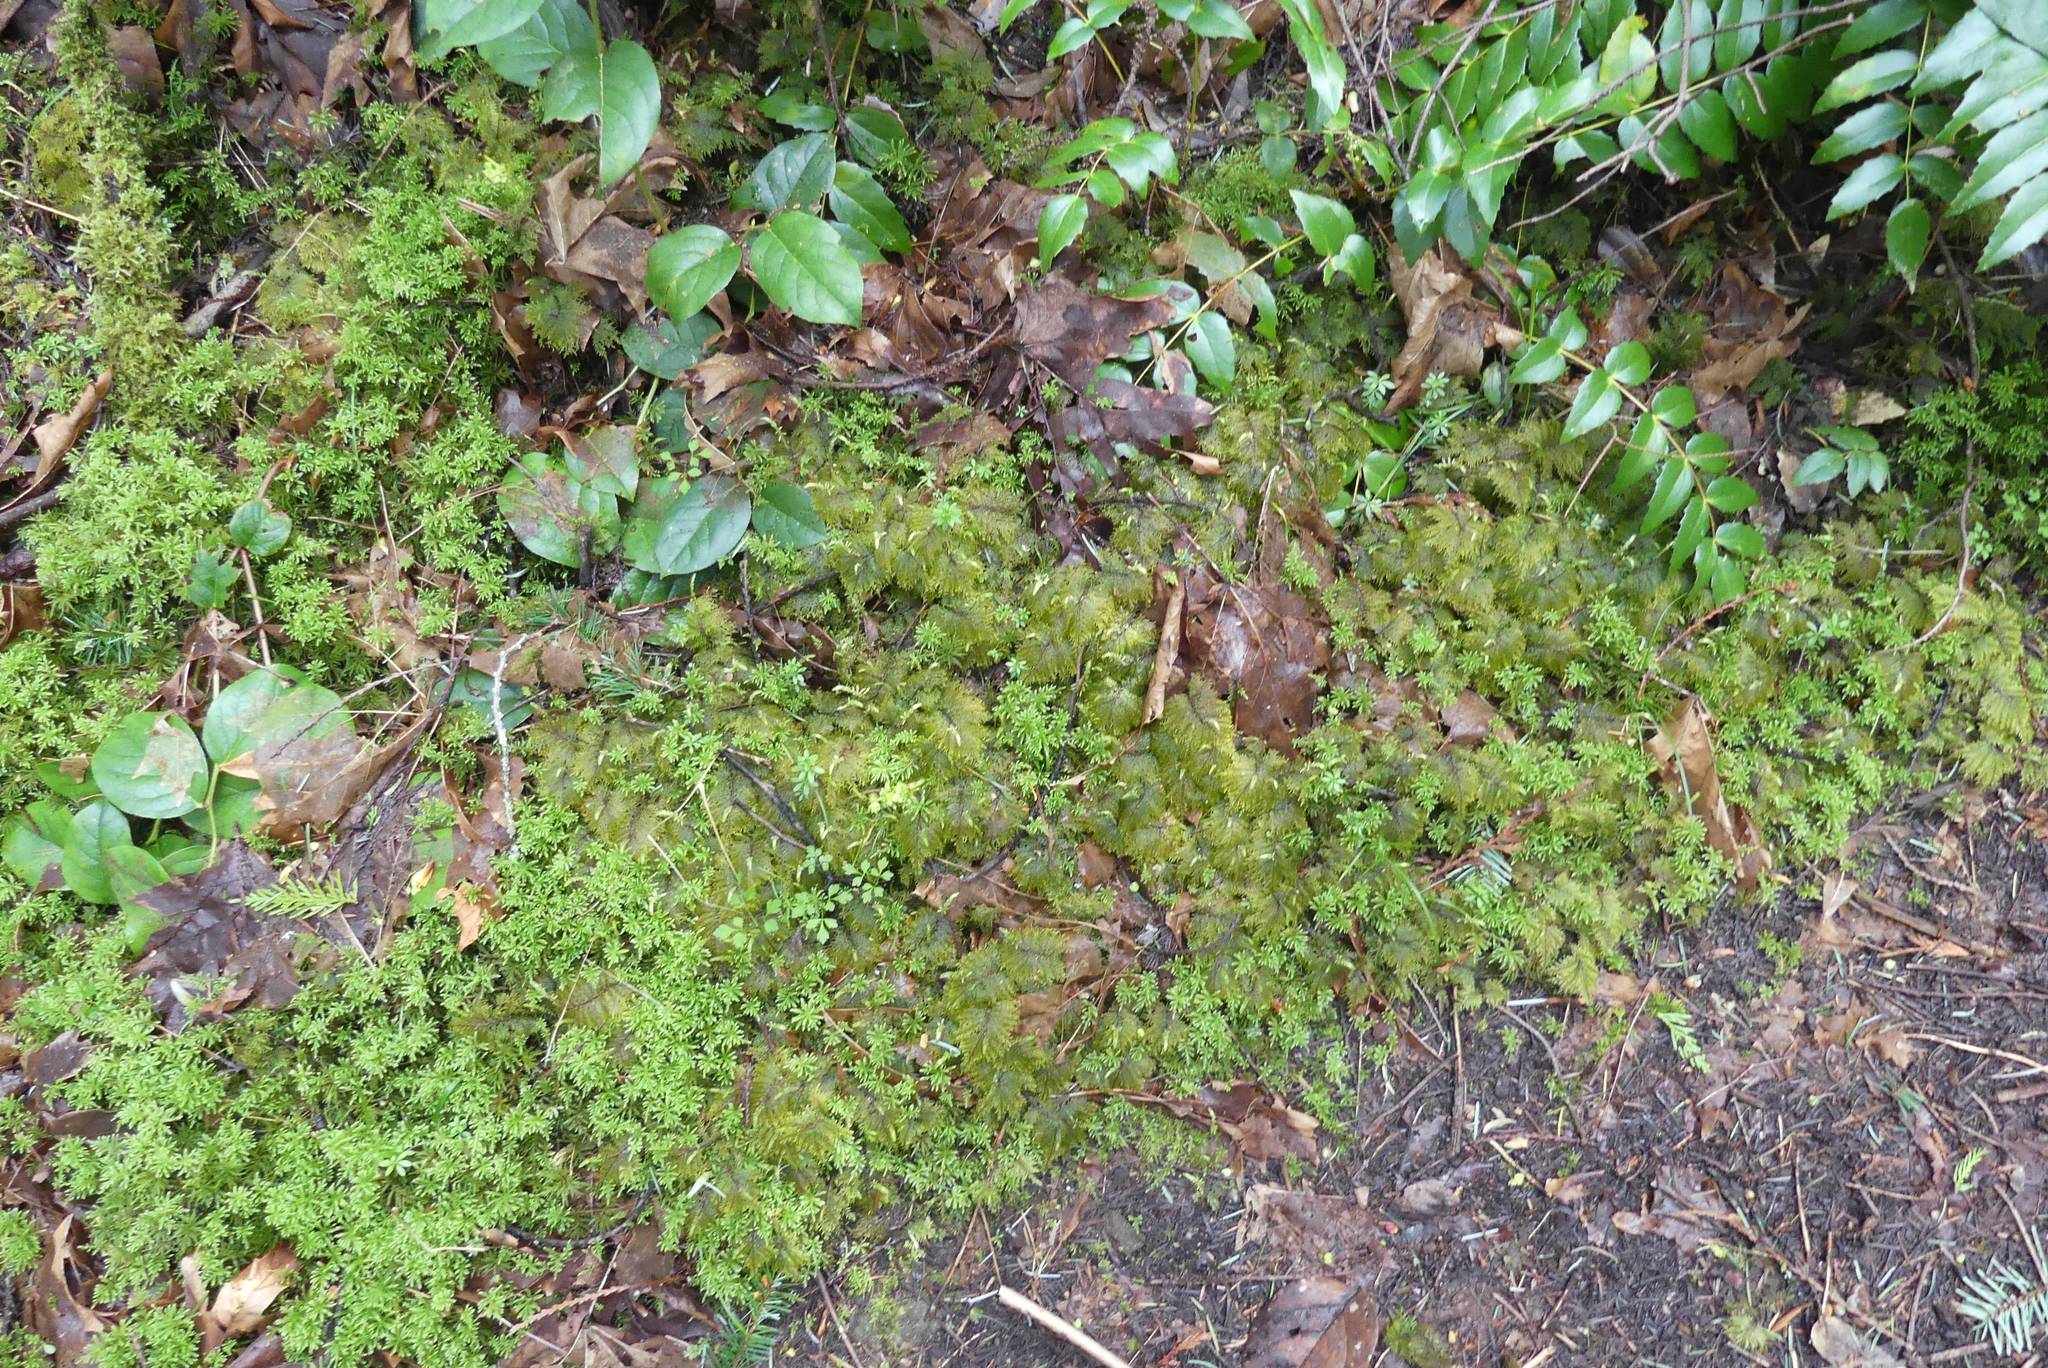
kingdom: Plantae
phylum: Bryophyta
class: Bryopsida
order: Hypnales
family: Hylocomiaceae
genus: Hylocomium
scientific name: Hylocomium splendens
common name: Stairstep moss
